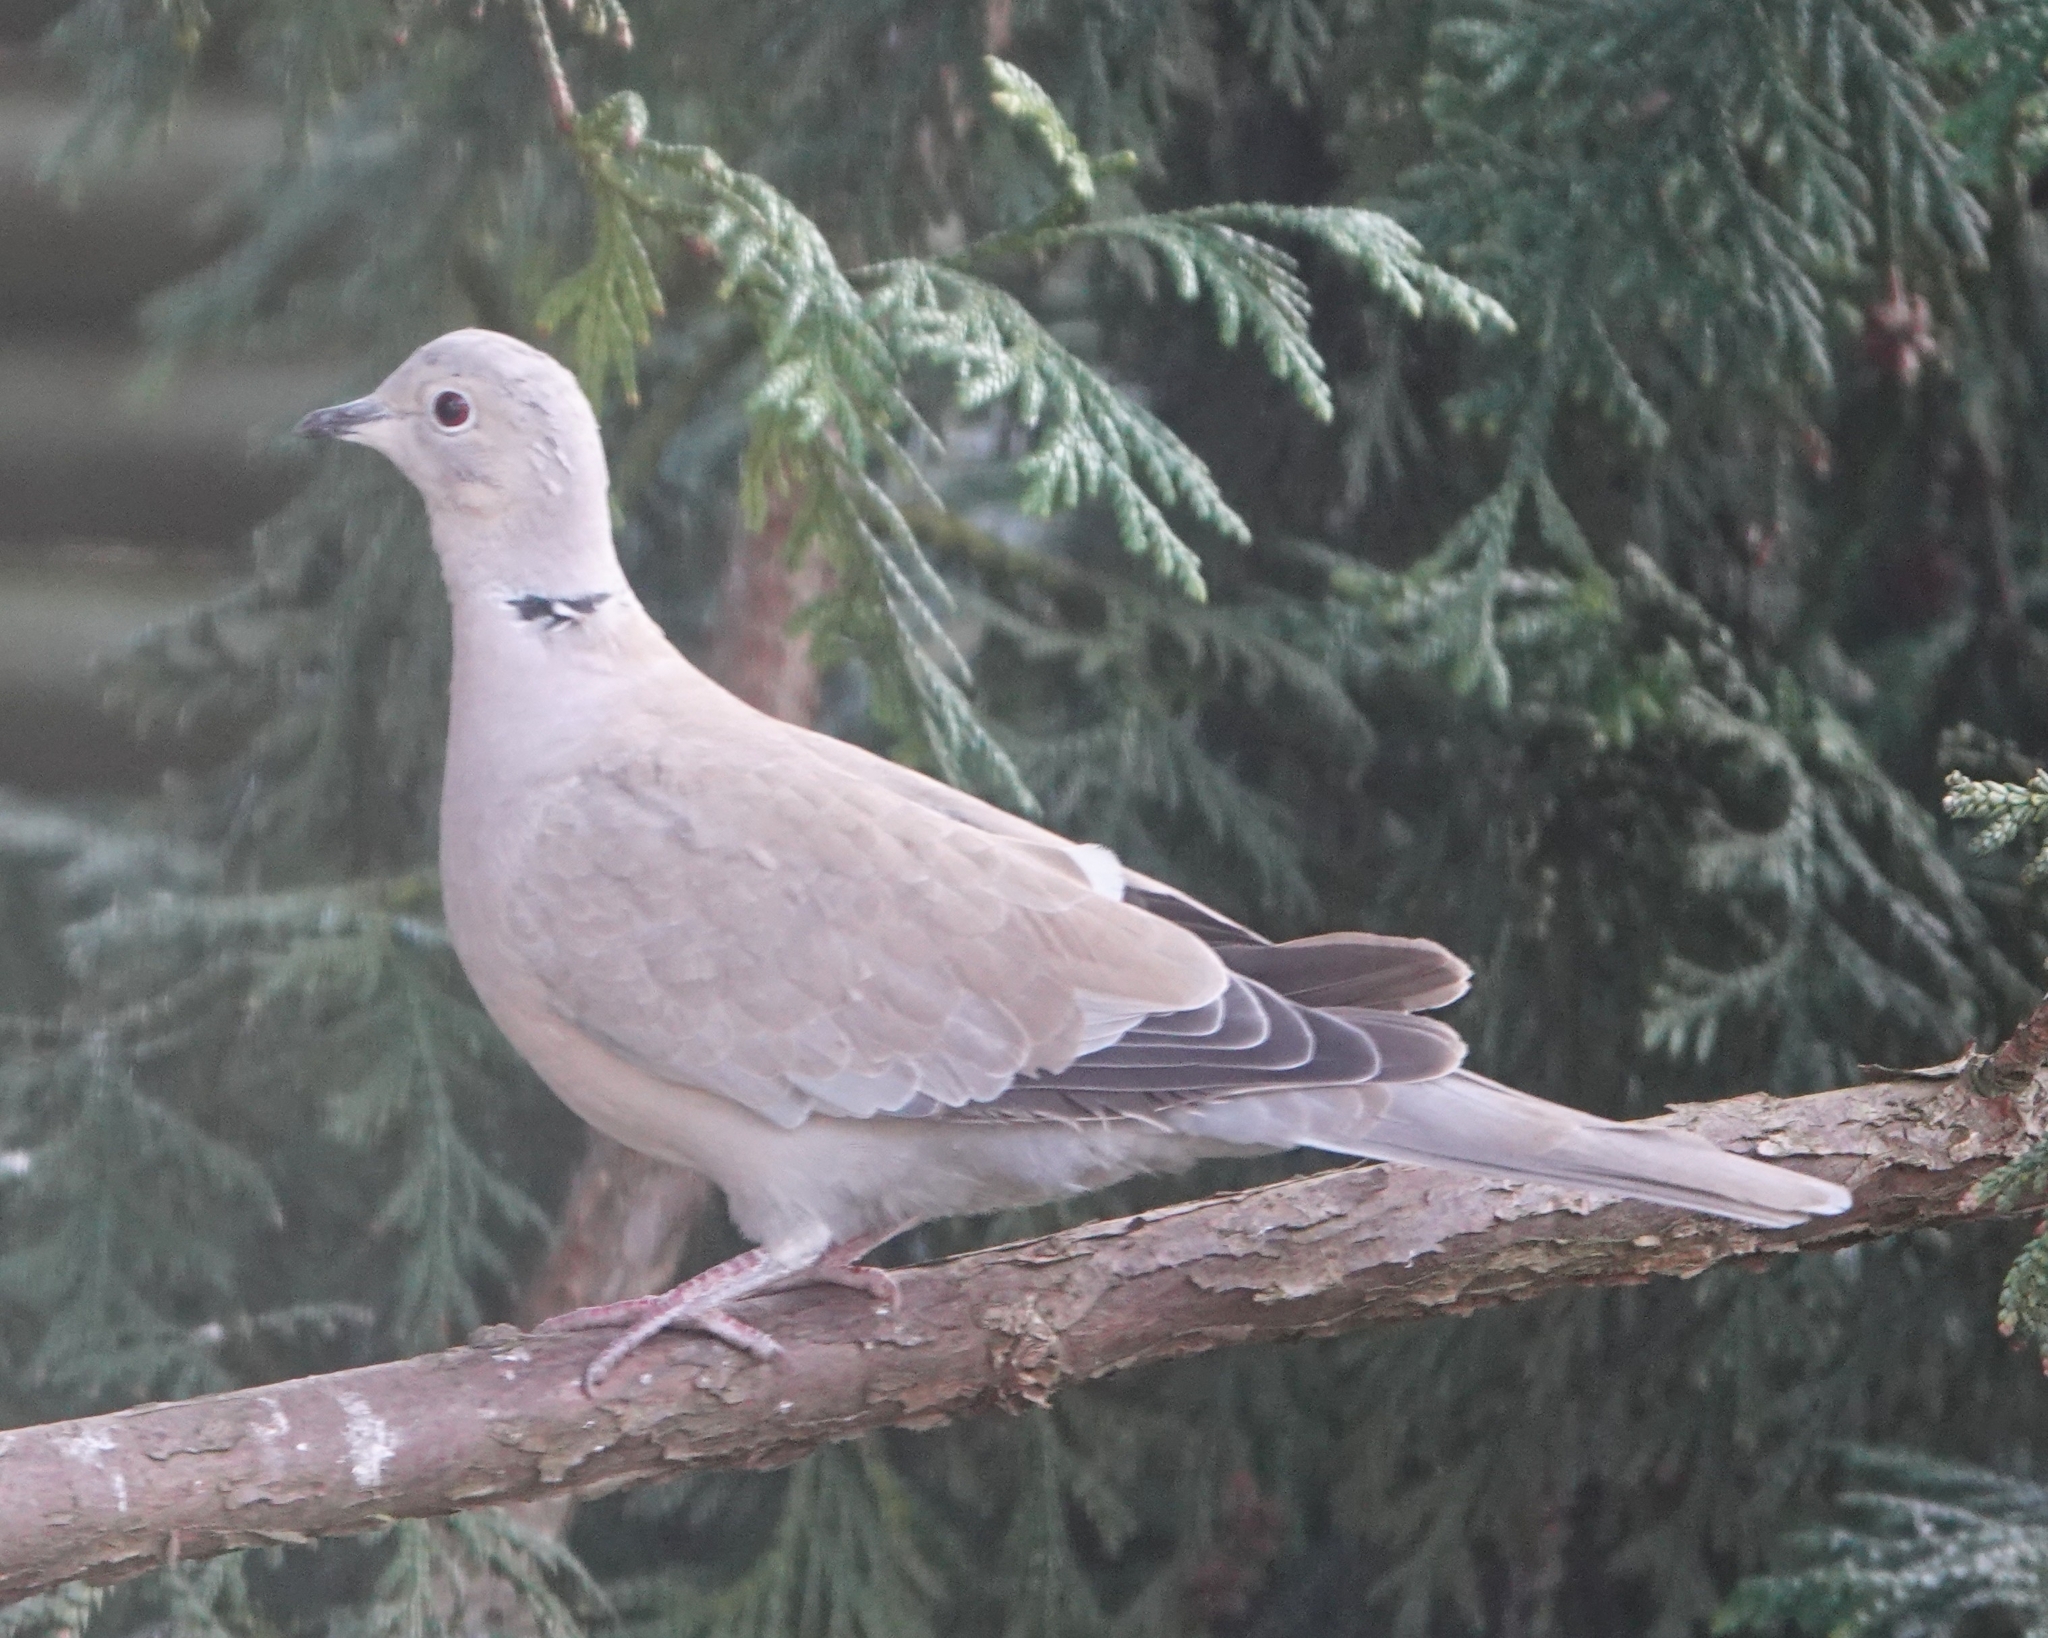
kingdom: Animalia
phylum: Chordata
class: Aves
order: Columbiformes
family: Columbidae
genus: Streptopelia
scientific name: Streptopelia decaocto
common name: Eurasian collared dove
